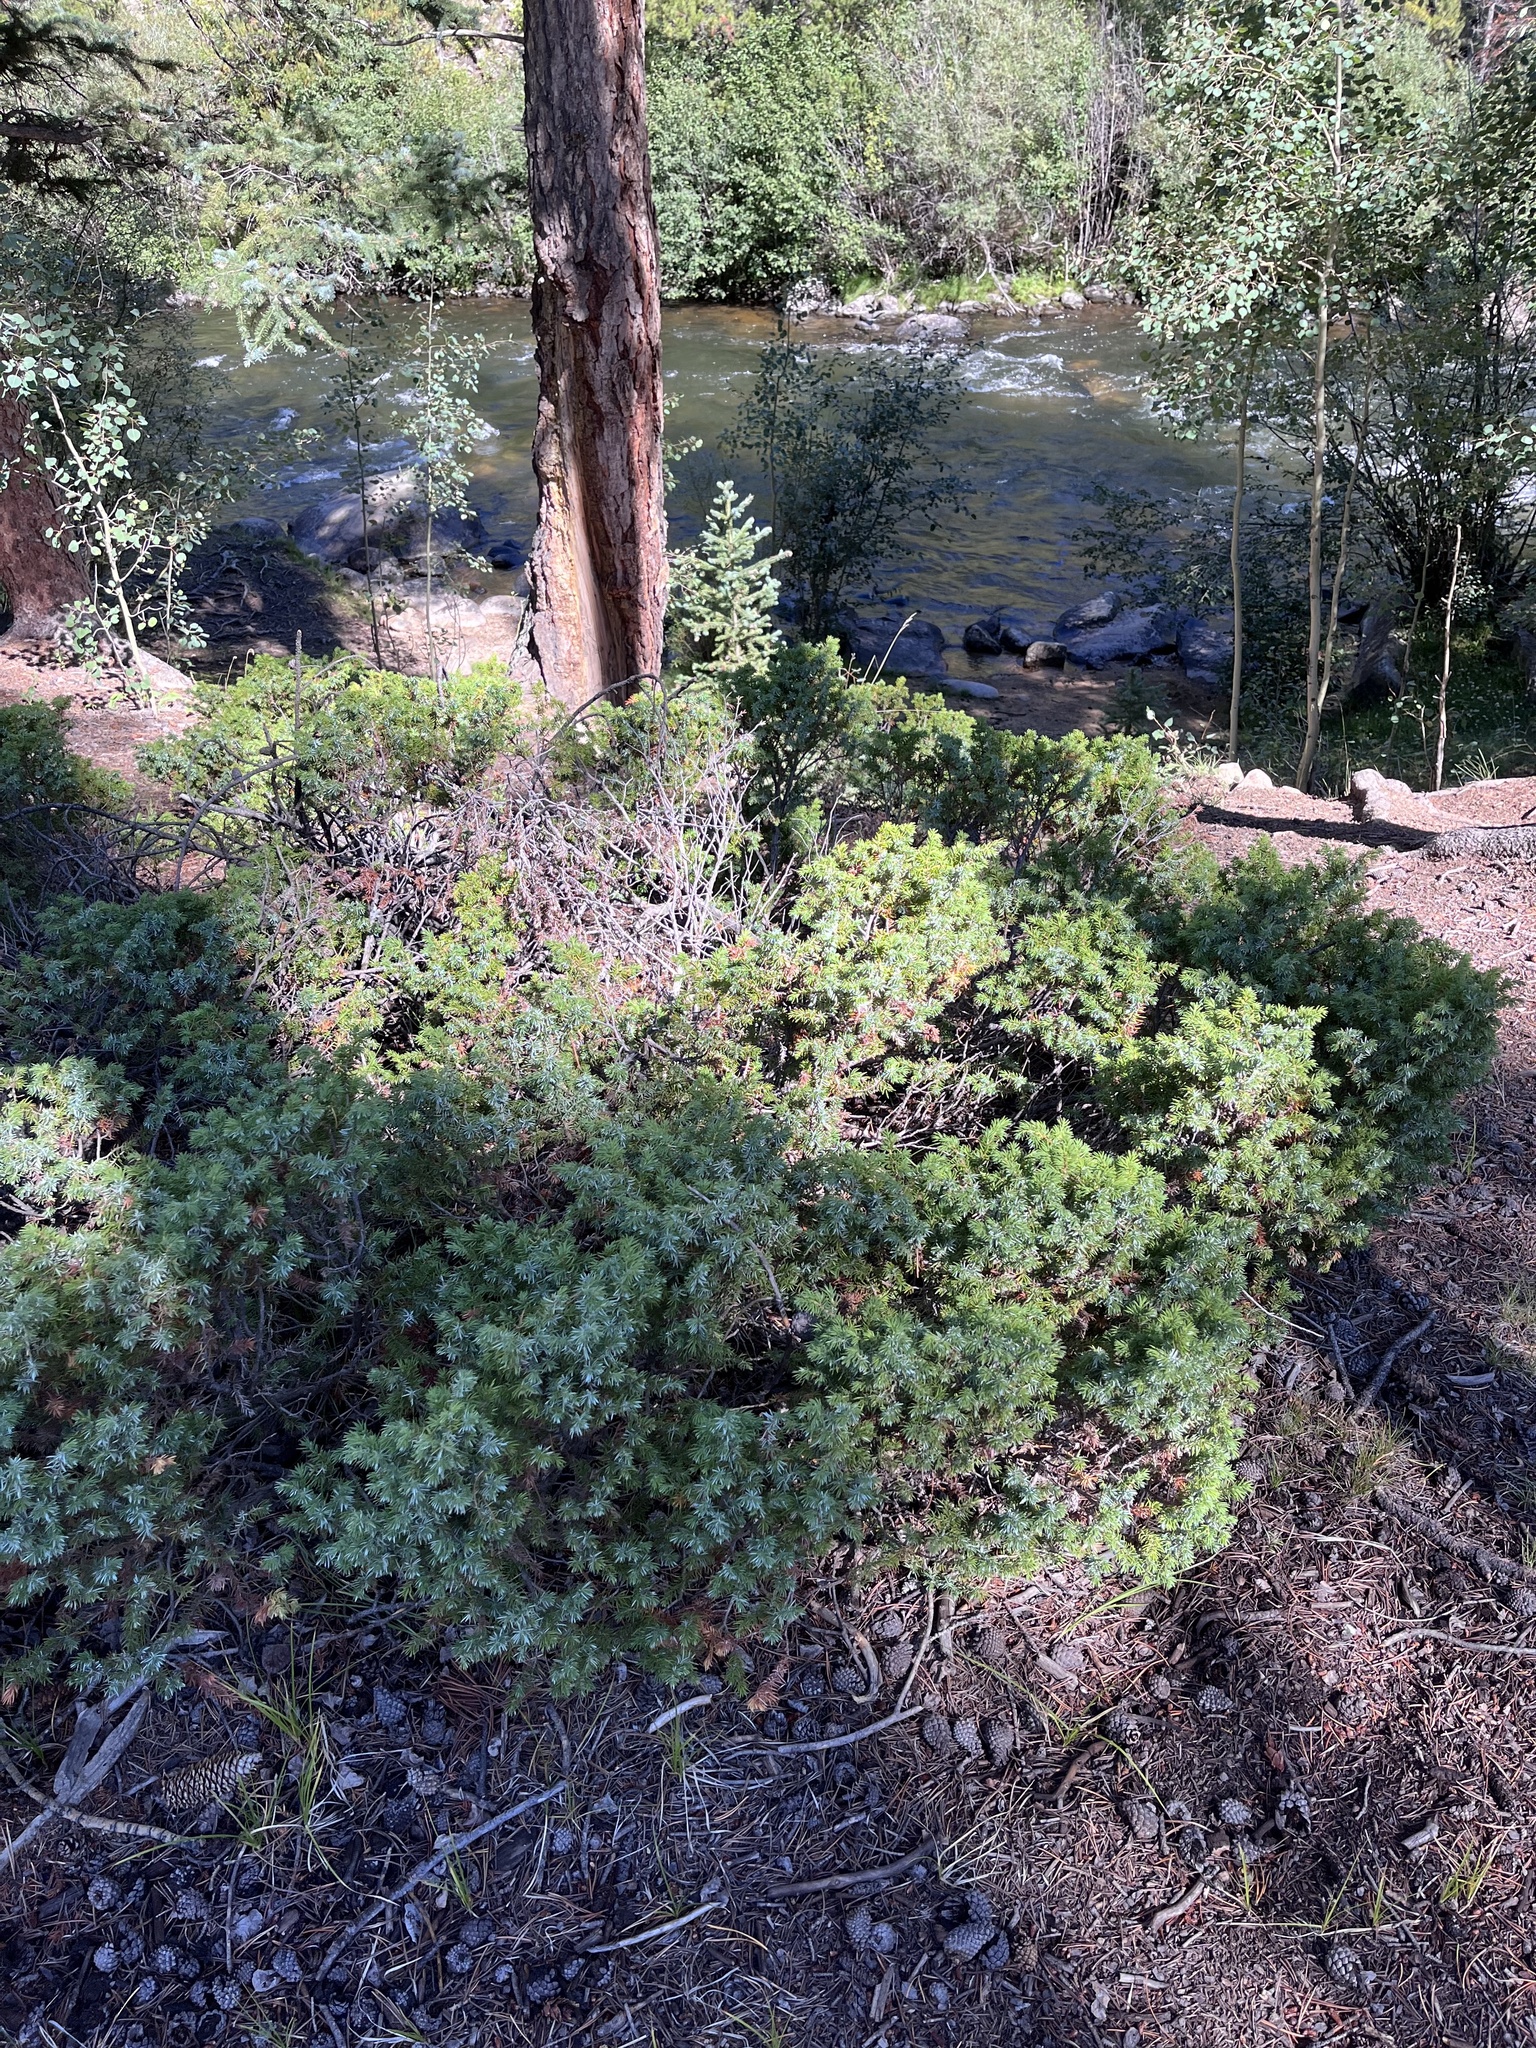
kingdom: Plantae
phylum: Tracheophyta
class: Pinopsida
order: Pinales
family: Cupressaceae
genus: Juniperus
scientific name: Juniperus communis
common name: Common juniper
